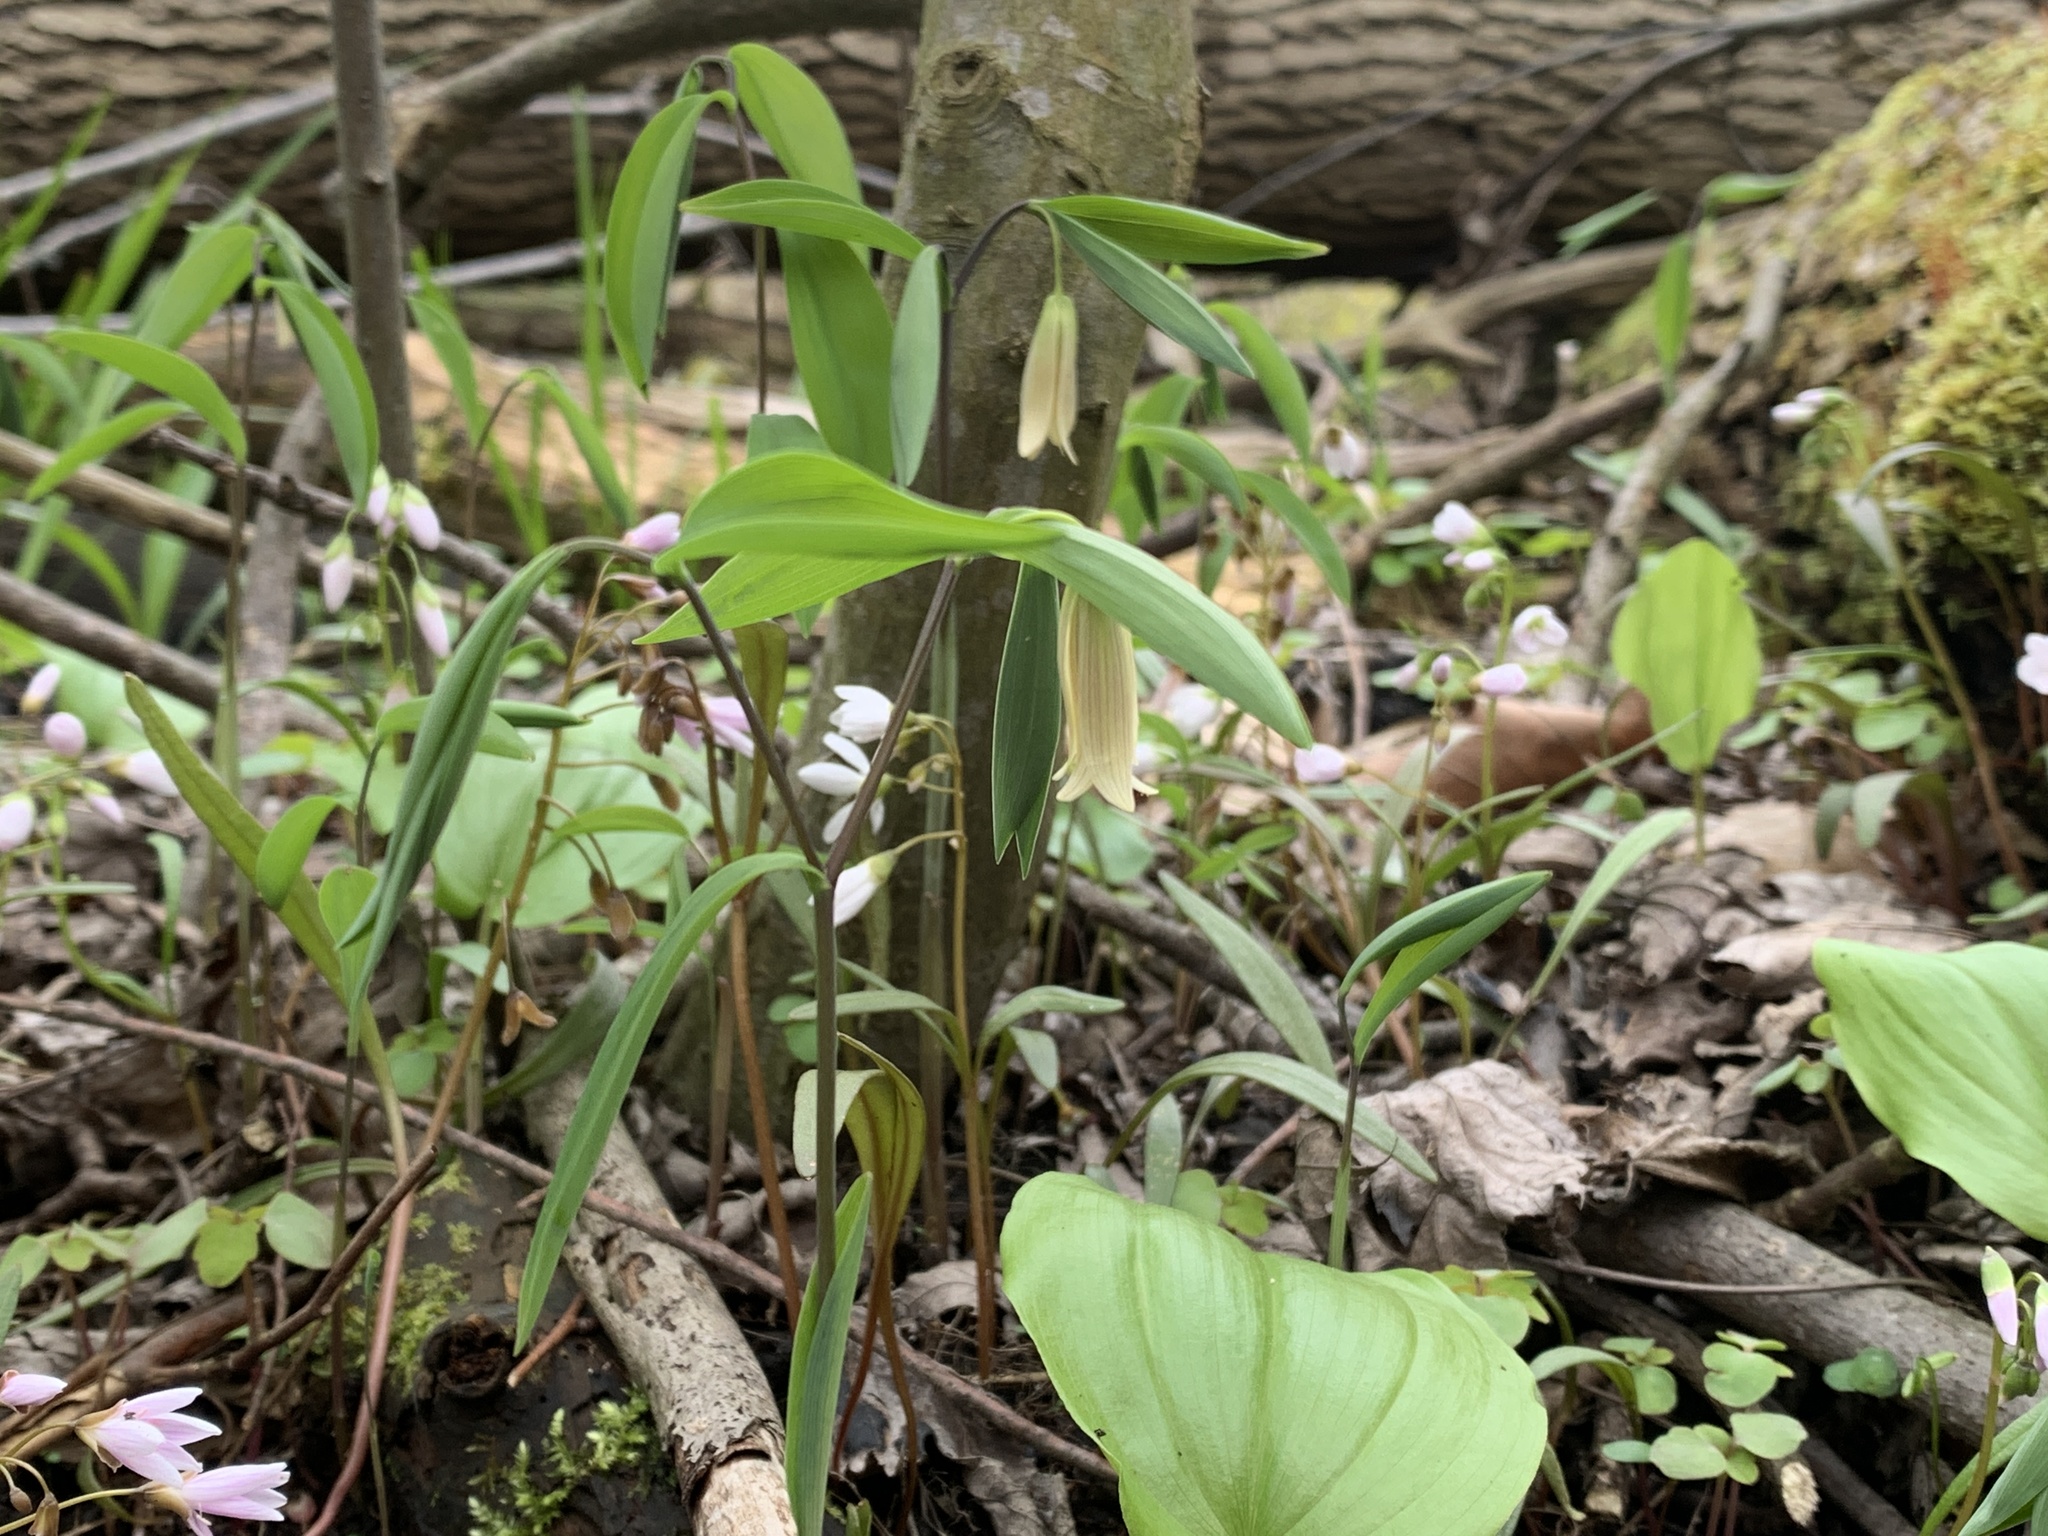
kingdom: Plantae
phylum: Tracheophyta
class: Liliopsida
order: Liliales
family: Colchicaceae
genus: Uvularia
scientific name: Uvularia sessilifolia
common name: Straw-lily
